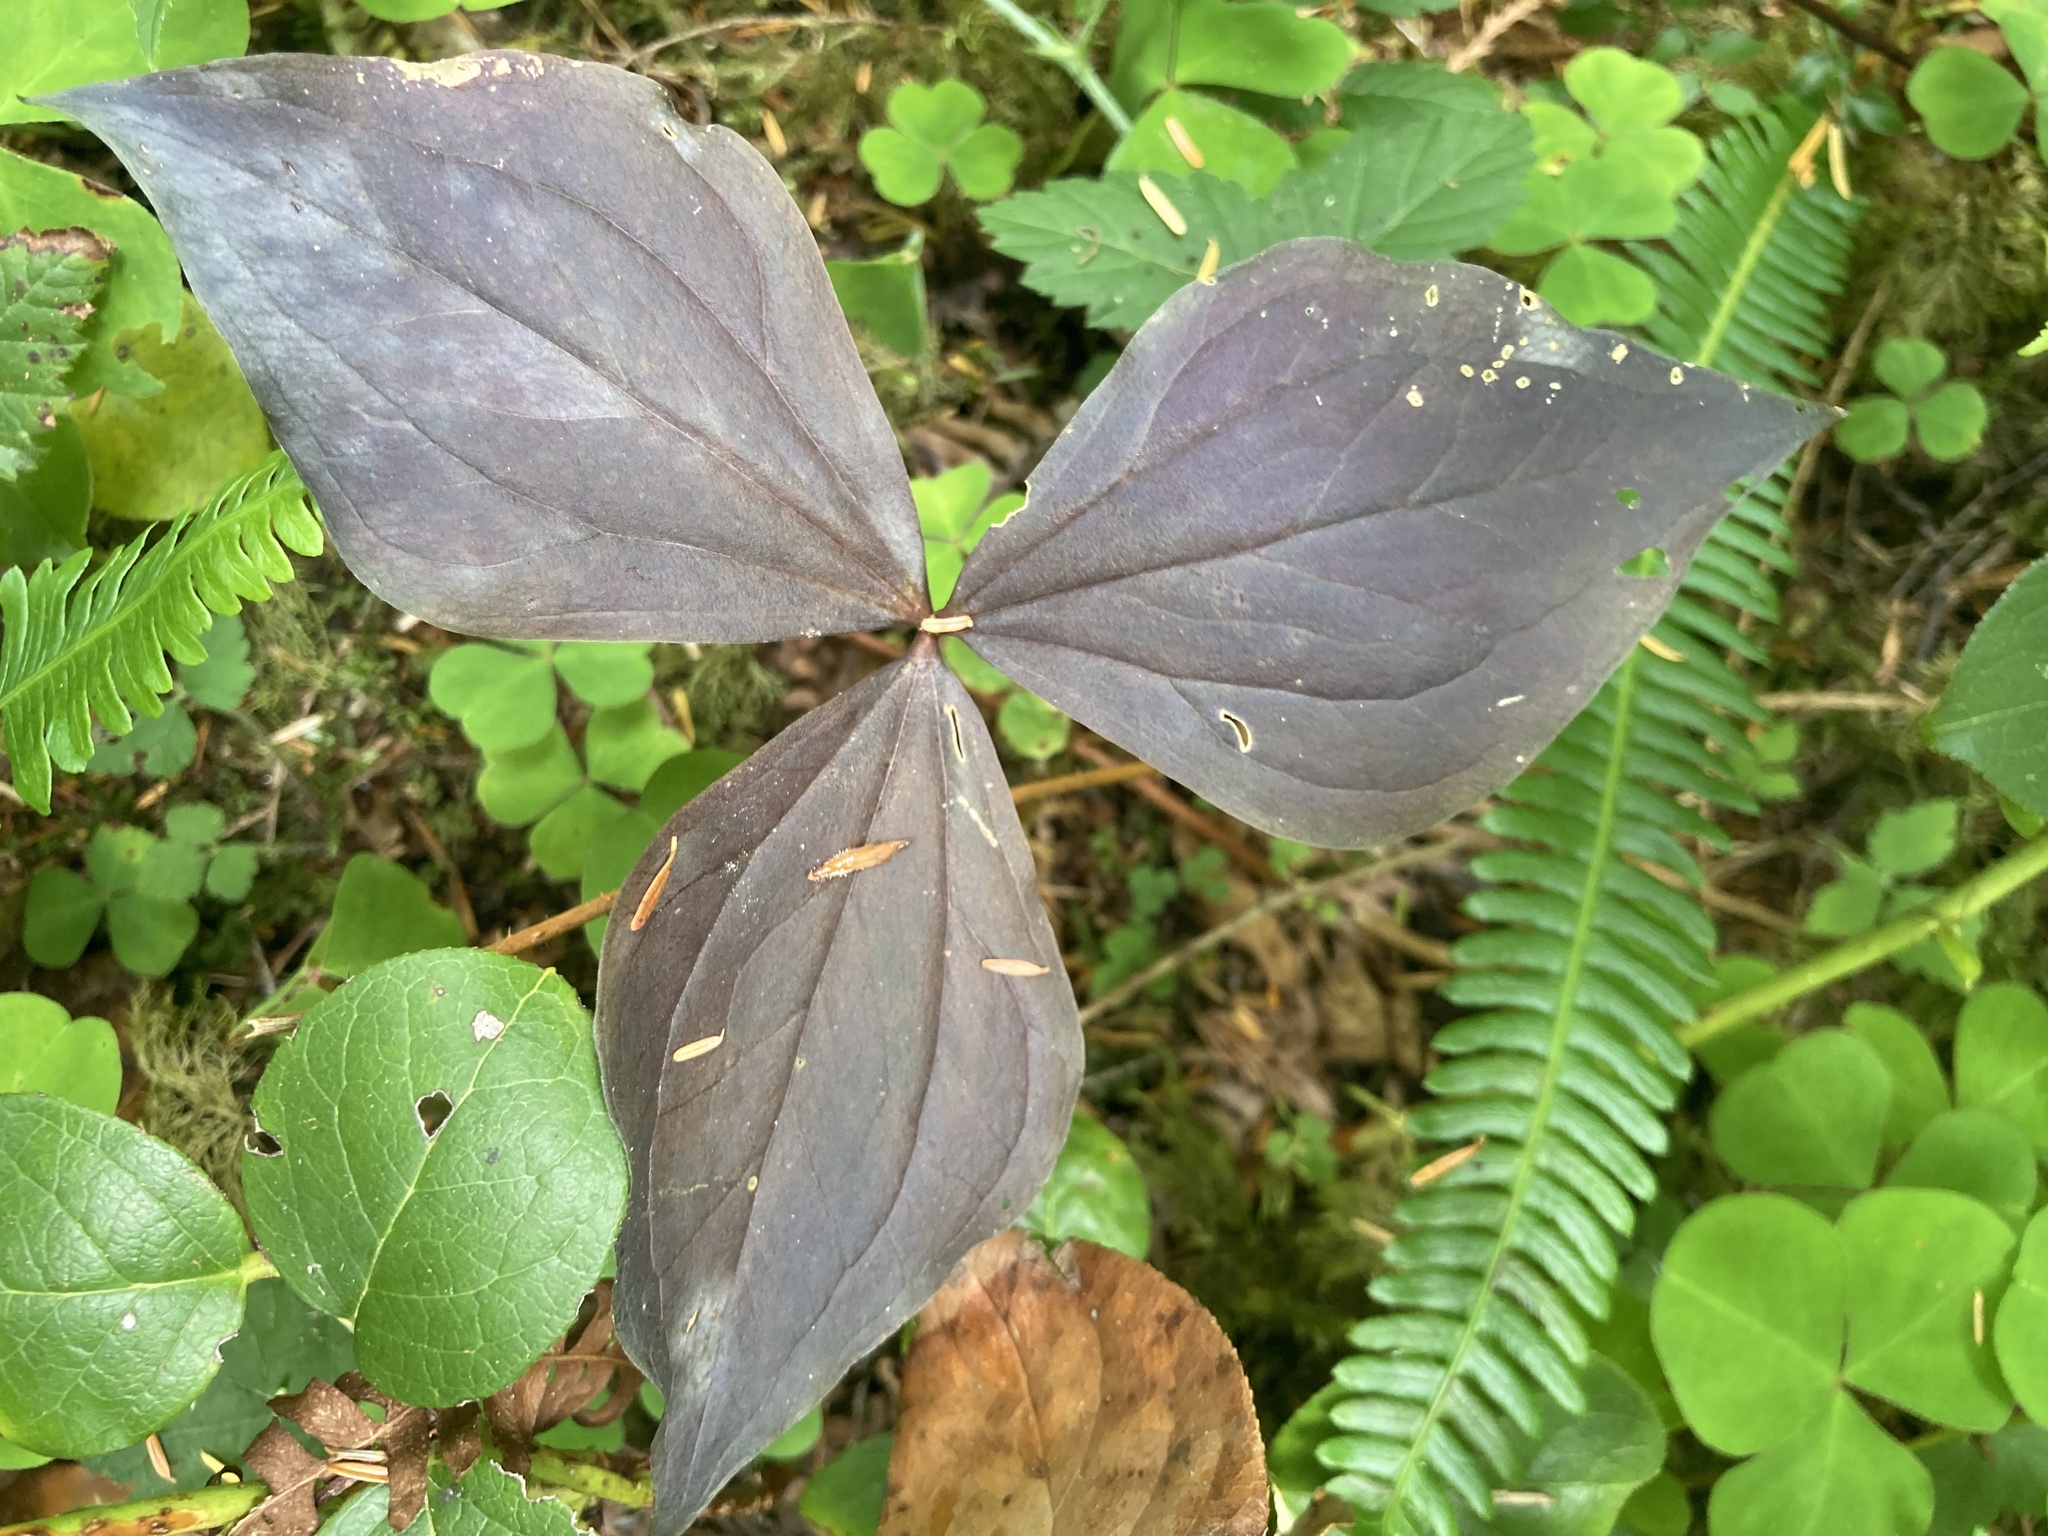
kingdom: Plantae
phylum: Tracheophyta
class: Liliopsida
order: Liliales
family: Melanthiaceae
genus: Trillium
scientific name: Trillium ovatum
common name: Pacific trillium
